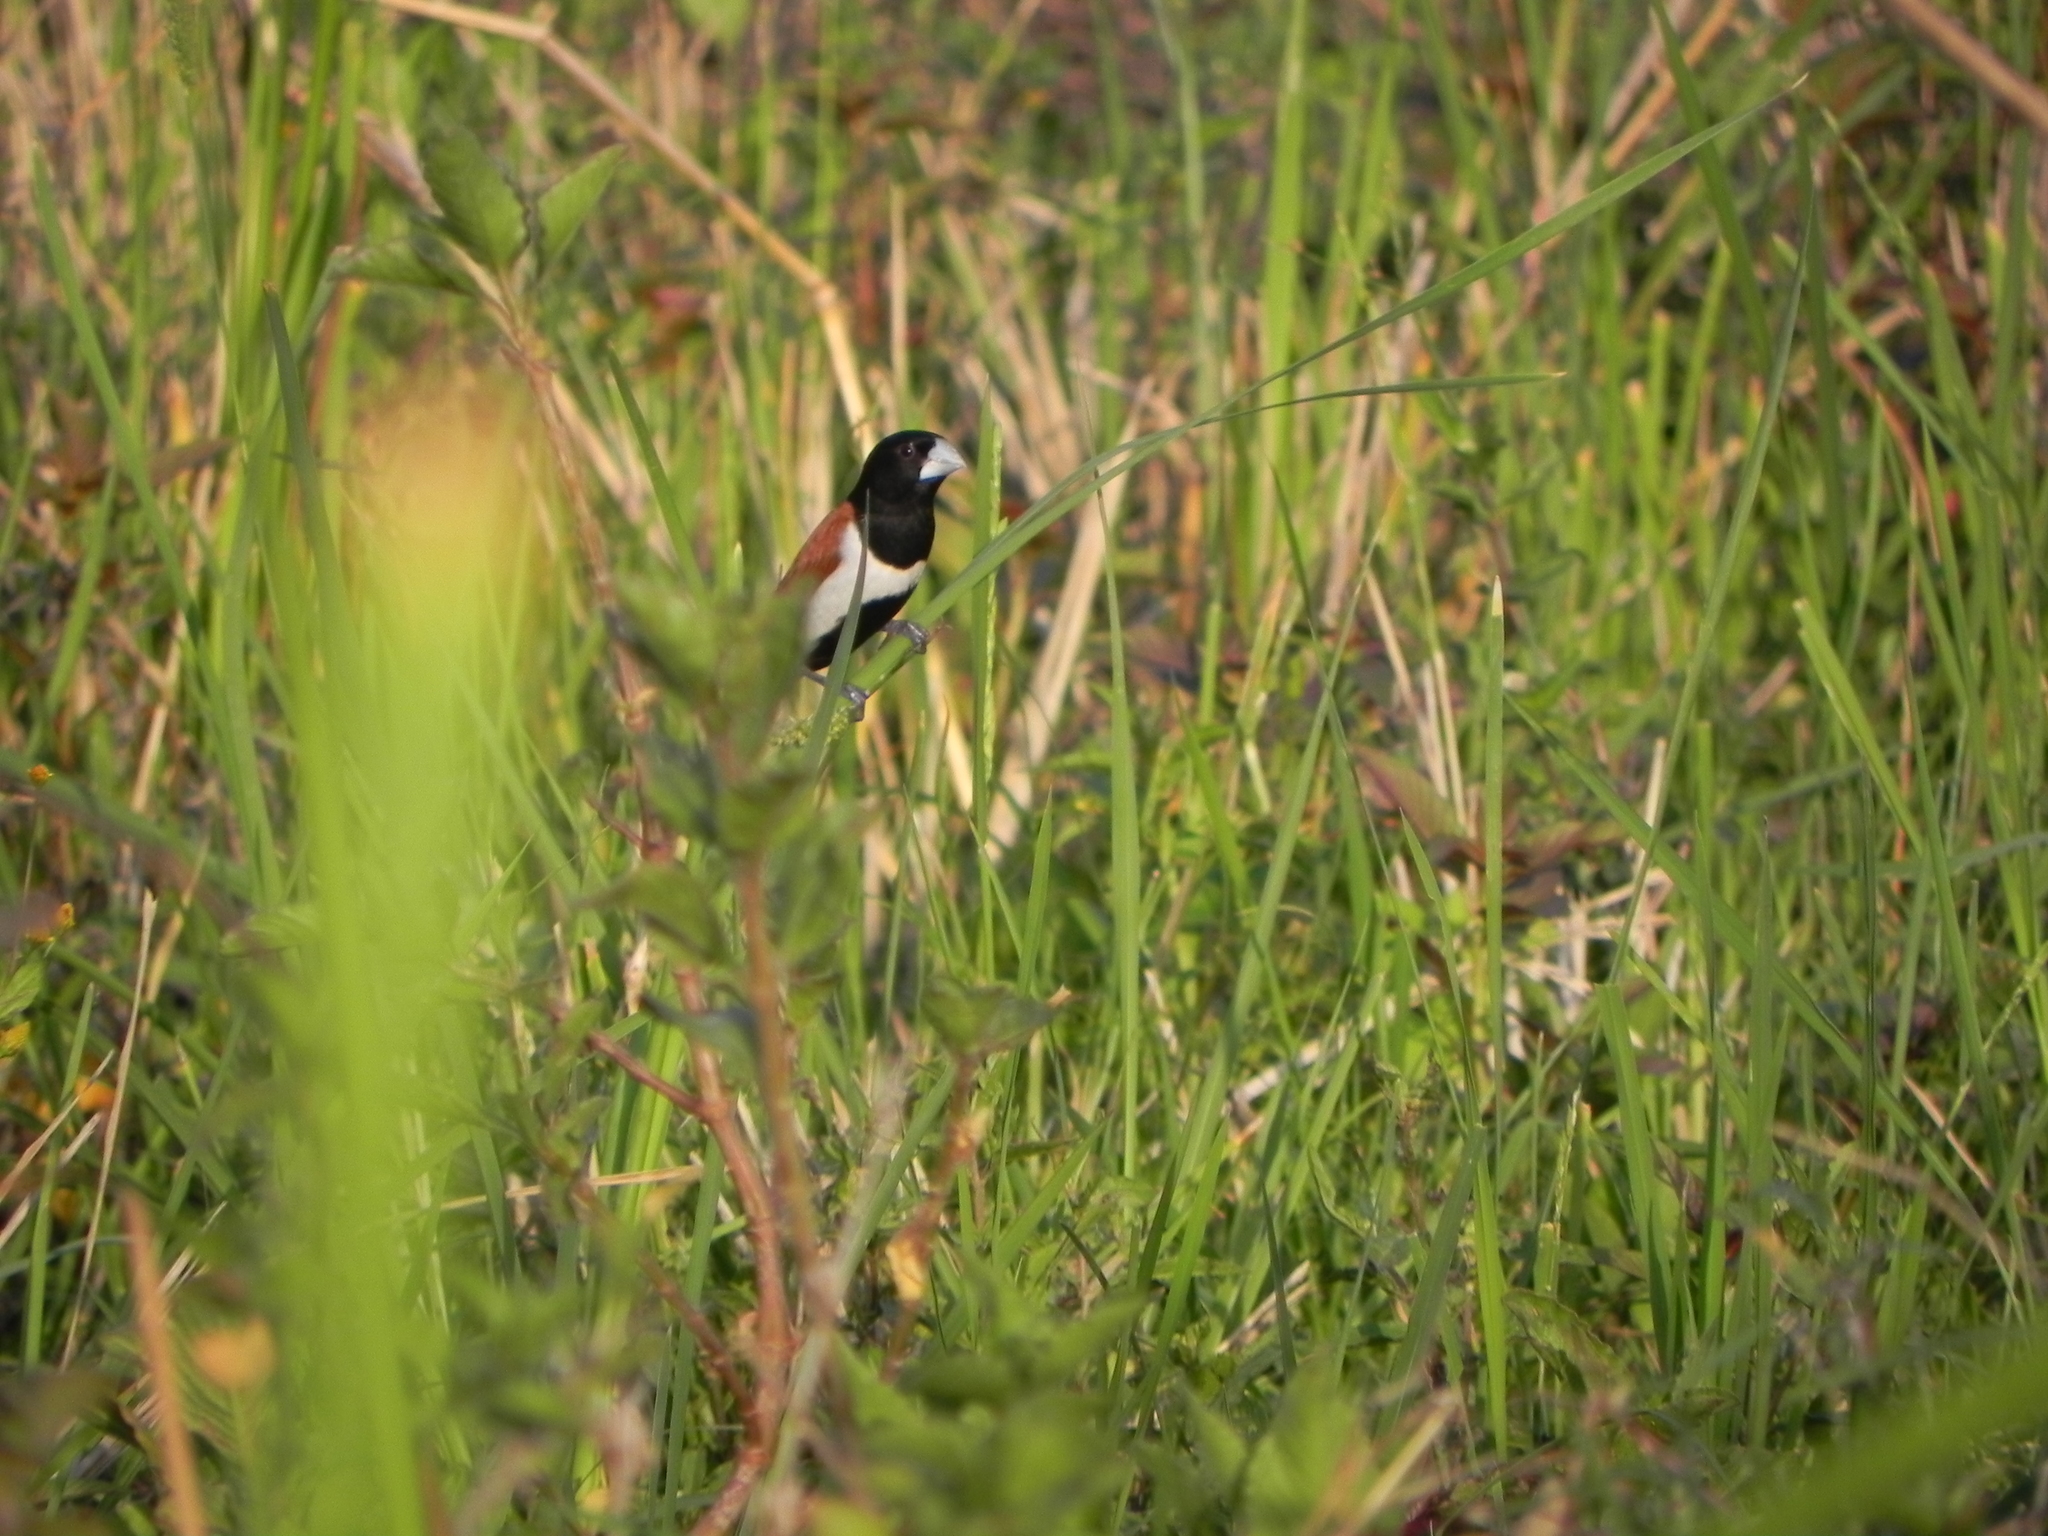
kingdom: Animalia
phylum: Chordata
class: Aves
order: Passeriformes
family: Estrildidae
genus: Lonchura
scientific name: Lonchura malacca
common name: Tricolored munia
